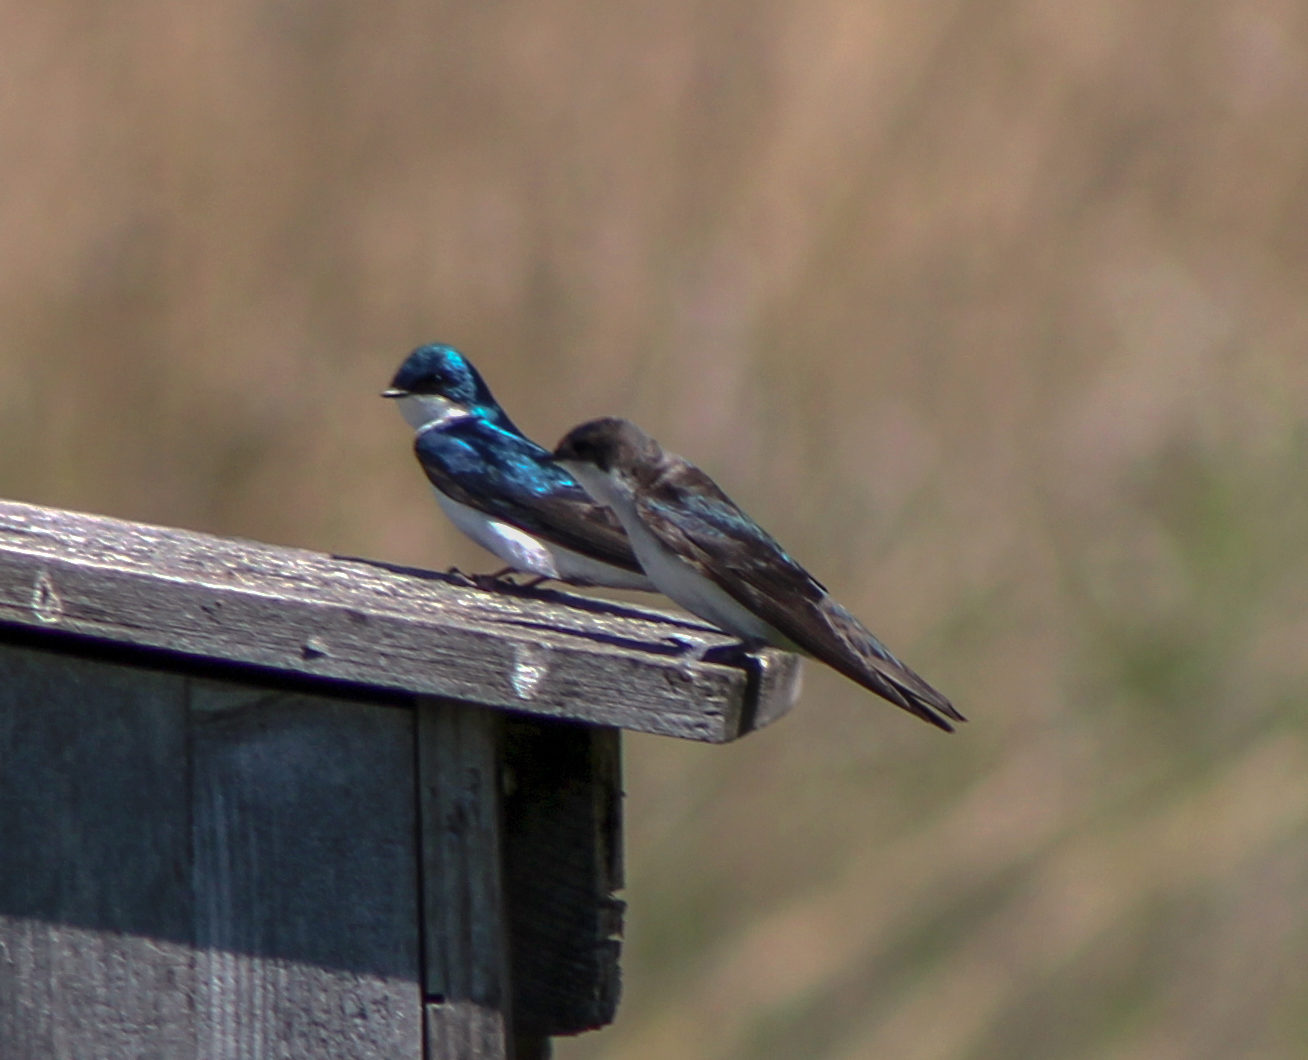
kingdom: Animalia
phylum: Chordata
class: Aves
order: Passeriformes
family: Hirundinidae
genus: Tachycineta
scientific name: Tachycineta bicolor
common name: Tree swallow
